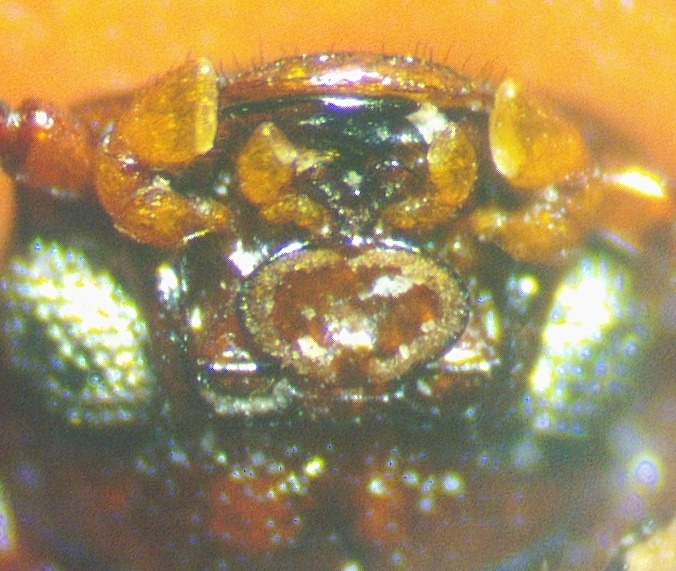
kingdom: Animalia
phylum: Arthropoda
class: Insecta
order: Coleoptera
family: Tenebrionidae
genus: Uloma
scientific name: Uloma punctulata
